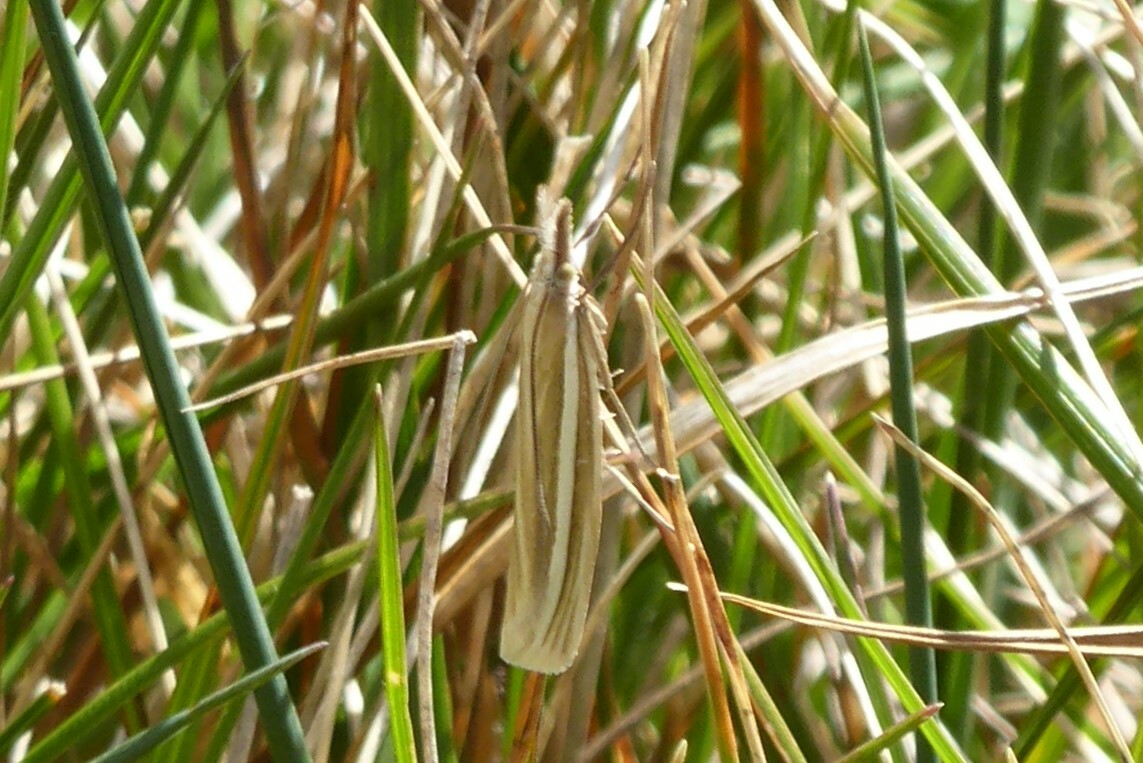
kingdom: Animalia
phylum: Arthropoda
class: Insecta
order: Lepidoptera
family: Crambidae
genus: Orocrambus
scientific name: Orocrambus lewisi
